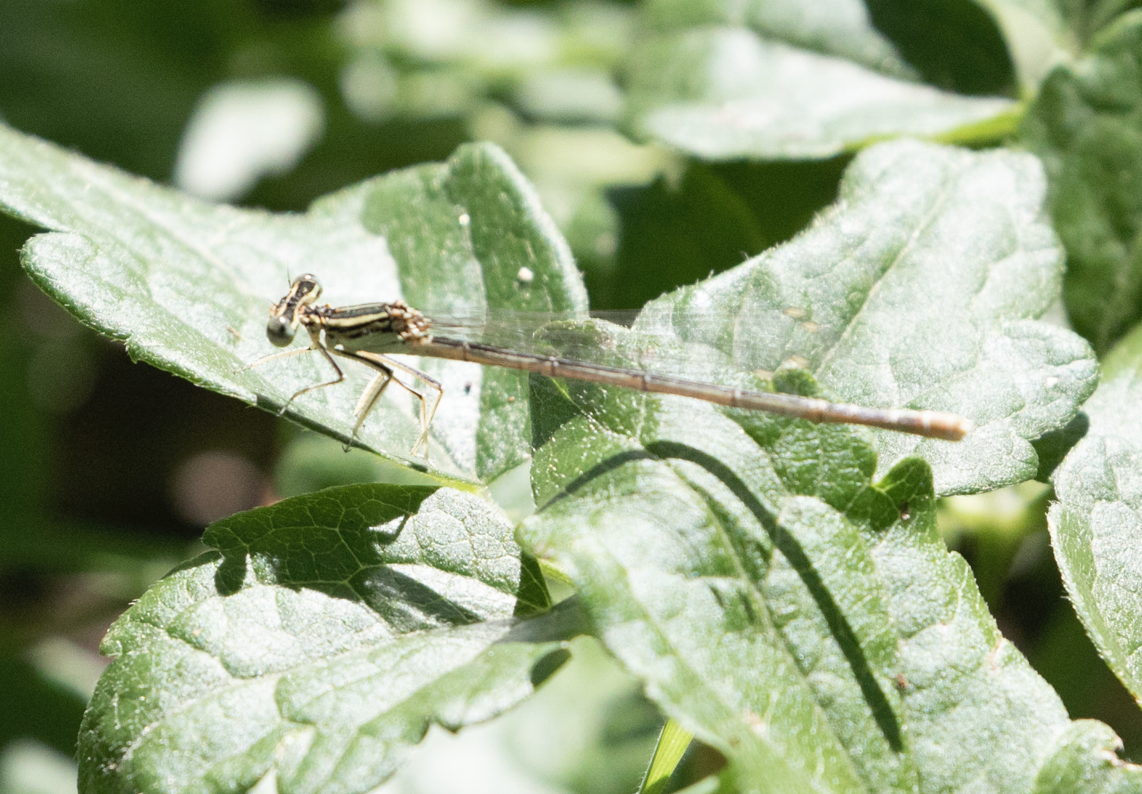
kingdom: Animalia
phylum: Arthropoda
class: Insecta
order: Odonata
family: Platycnemididae
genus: Platycnemis
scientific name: Platycnemis pennipes
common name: White-legged damselfly
